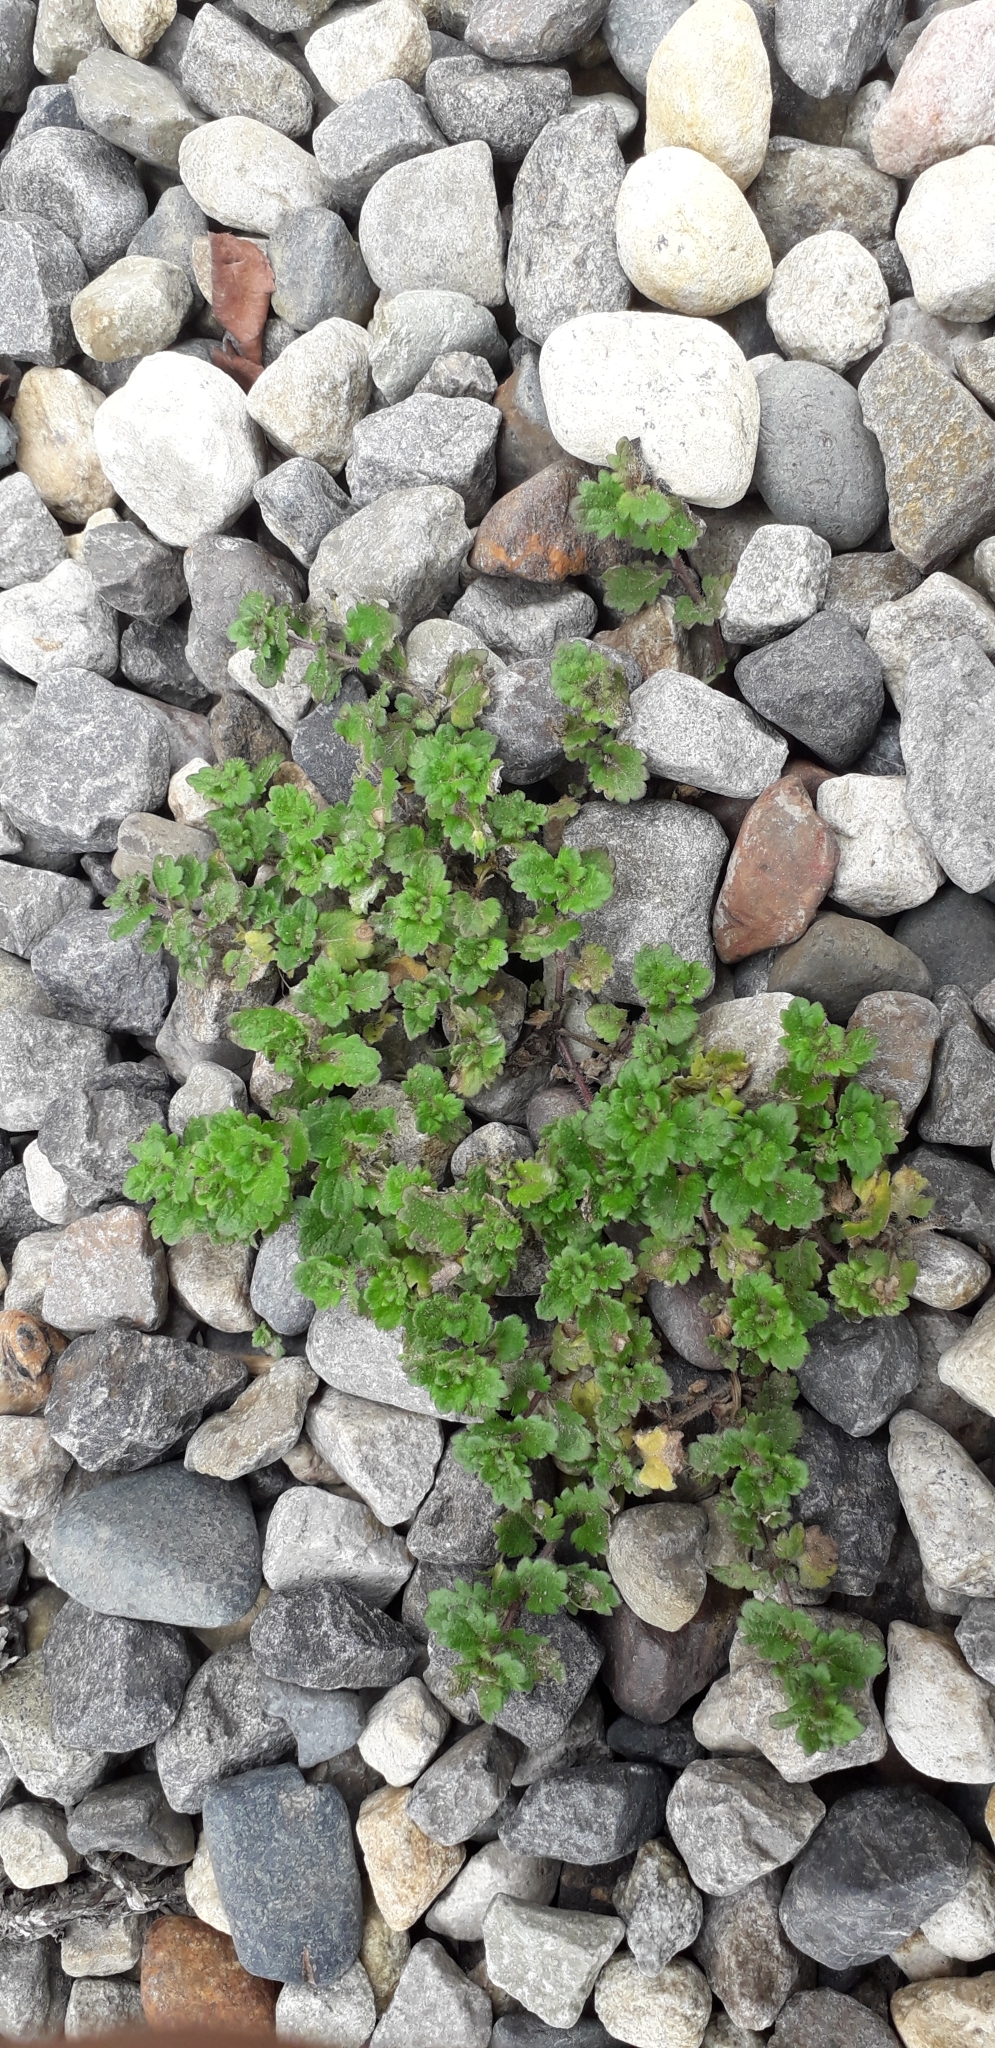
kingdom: Plantae
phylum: Tracheophyta
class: Magnoliopsida
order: Lamiales
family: Plantaginaceae
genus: Veronica
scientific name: Veronica persica
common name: Common field-speedwell
